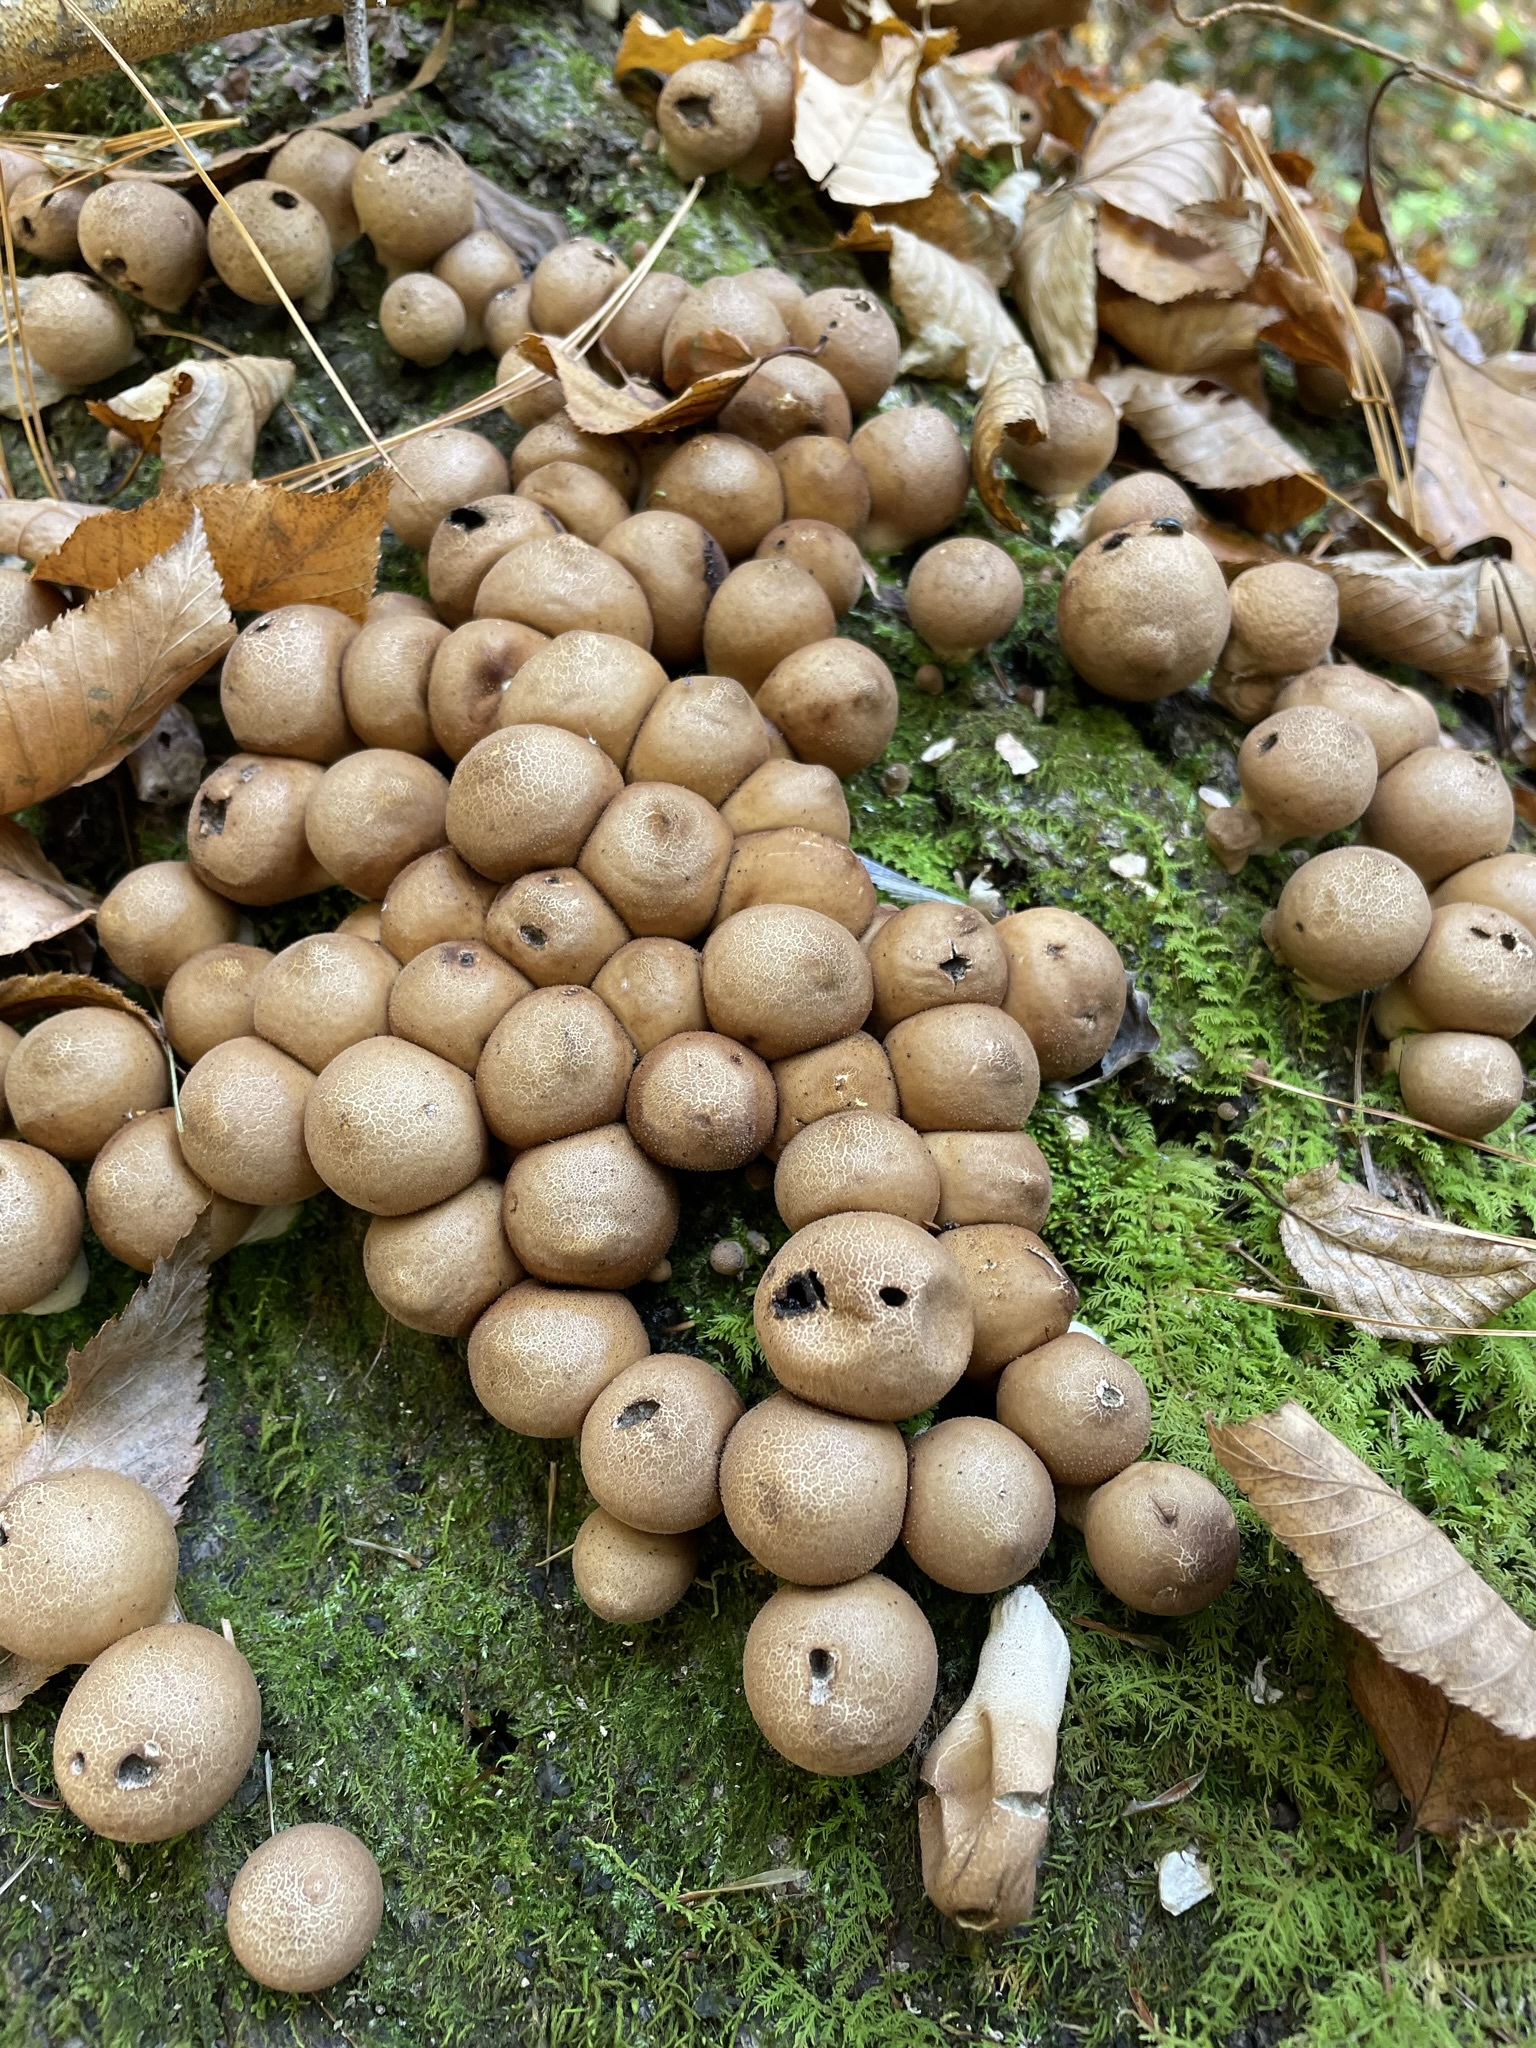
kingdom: Fungi
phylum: Basidiomycota
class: Agaricomycetes
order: Agaricales
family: Lycoperdaceae
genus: Apioperdon
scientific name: Apioperdon pyriforme
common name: Pear-shaped puffball
